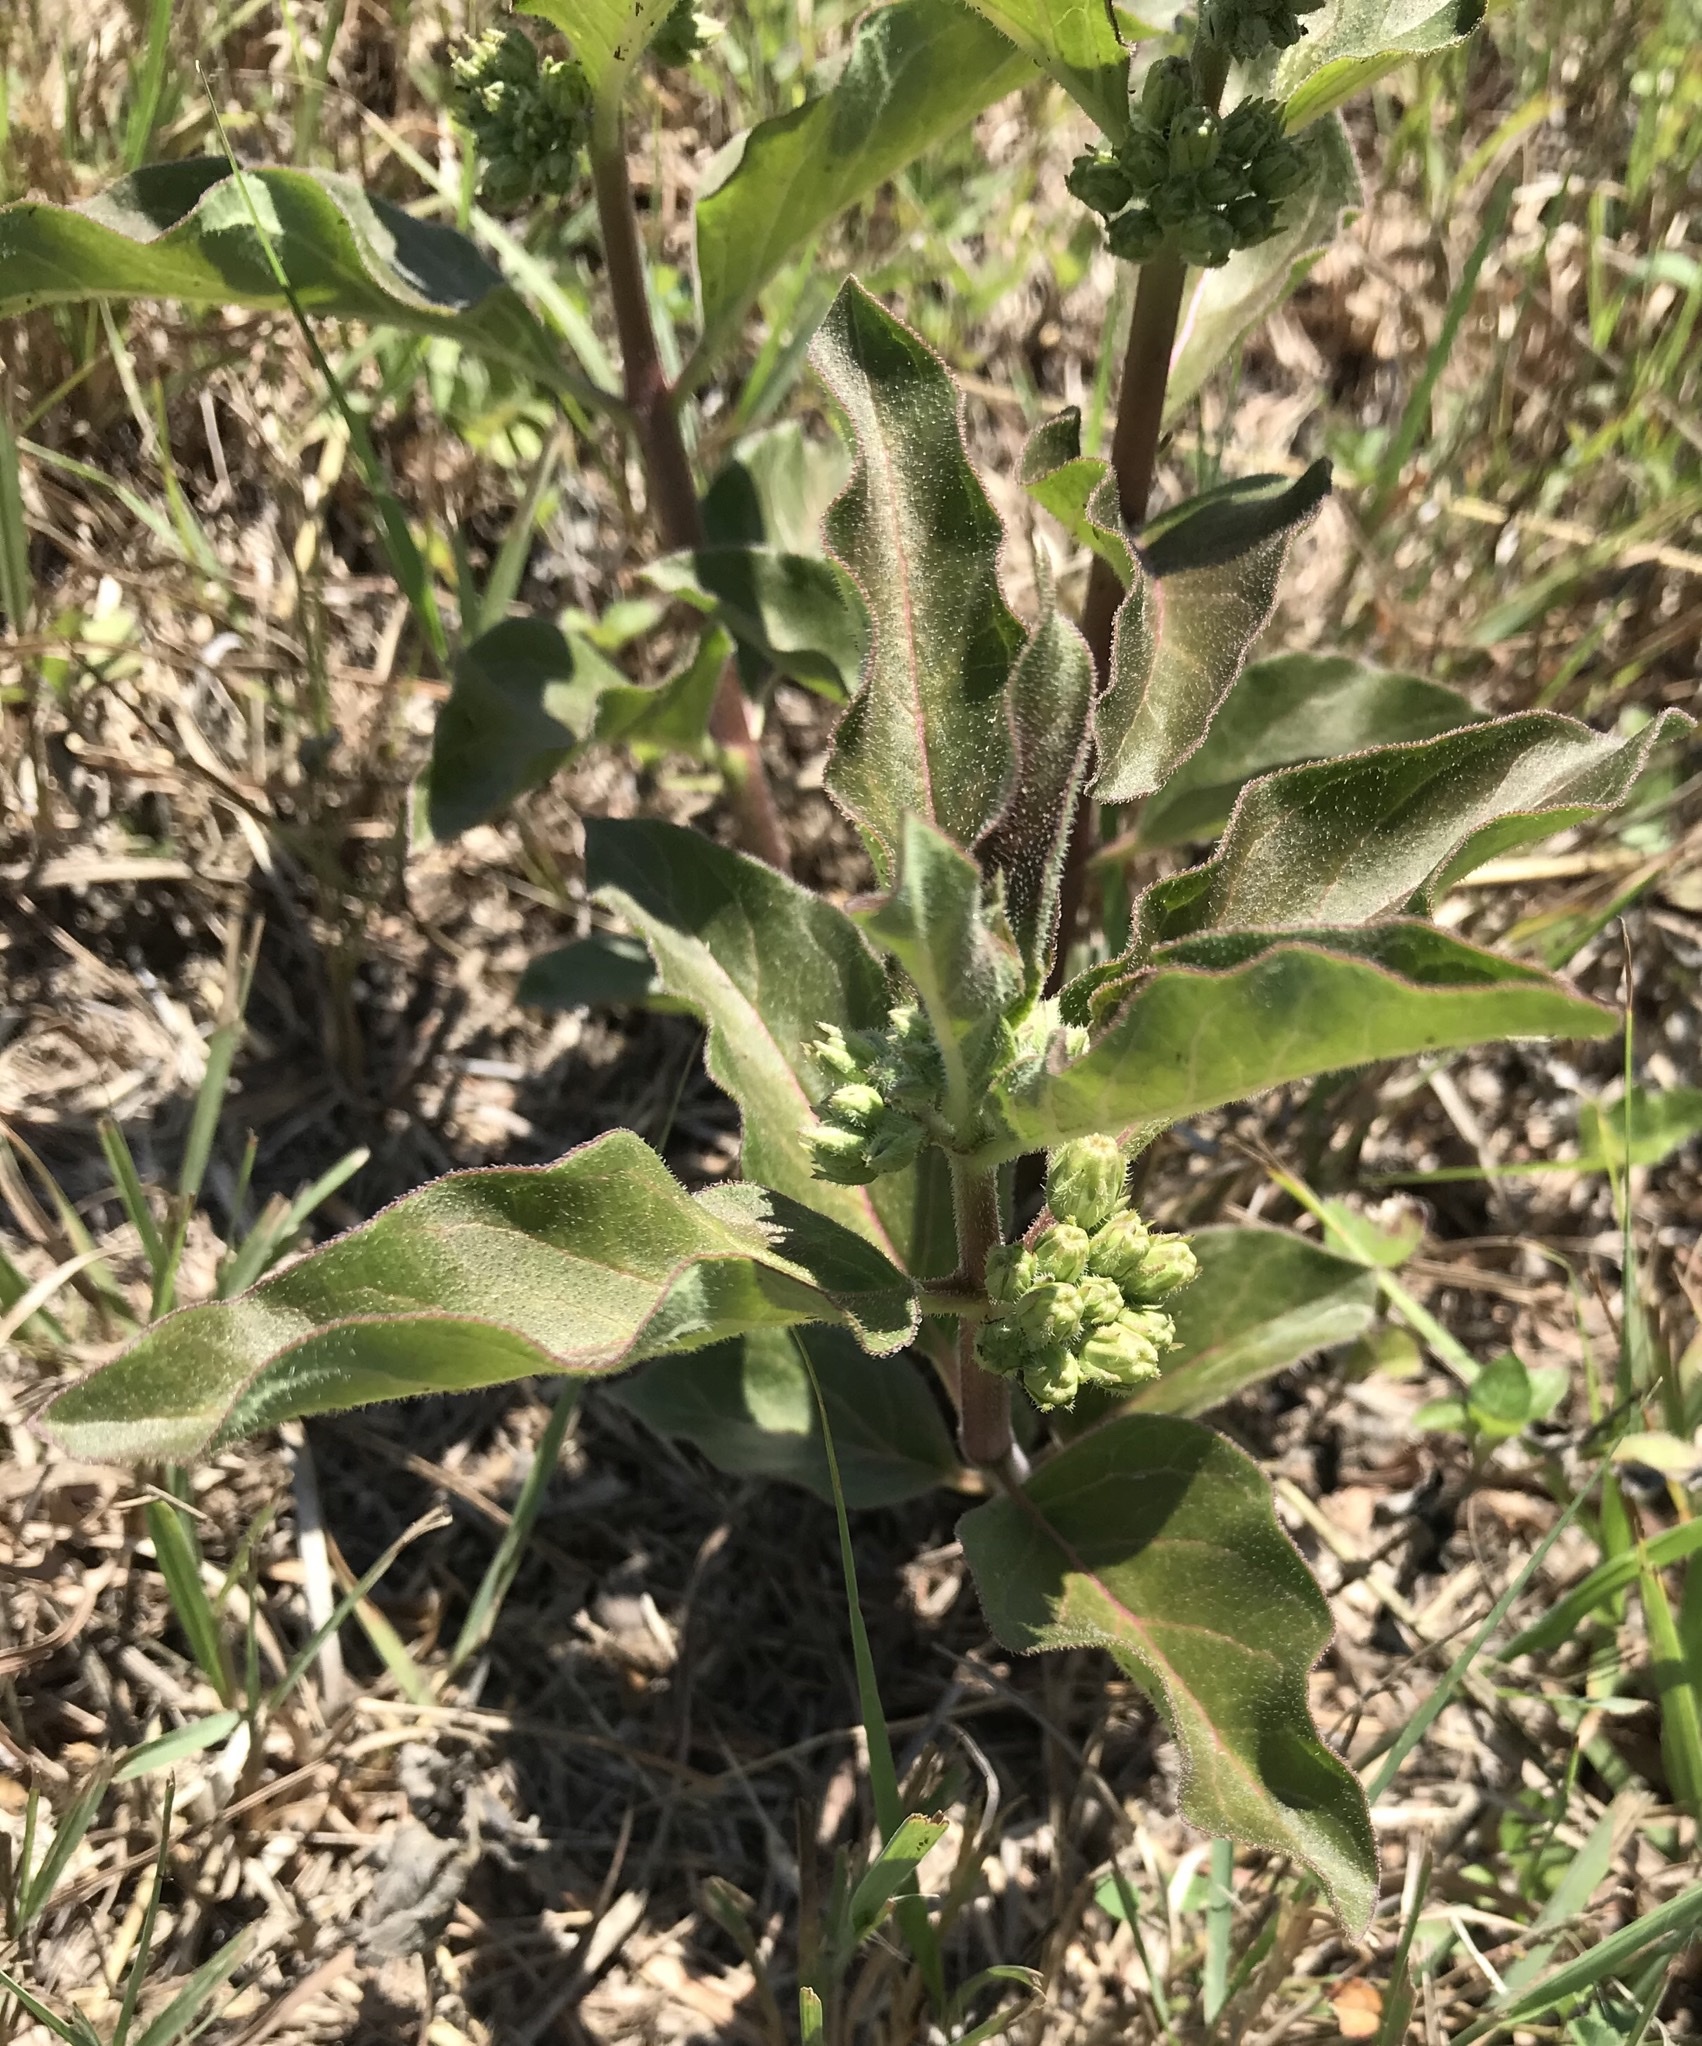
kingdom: Plantae
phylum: Tracheophyta
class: Magnoliopsida
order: Gentianales
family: Apocynaceae
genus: Asclepias
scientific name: Asclepias oenotheroides
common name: Zizotes milkweed
